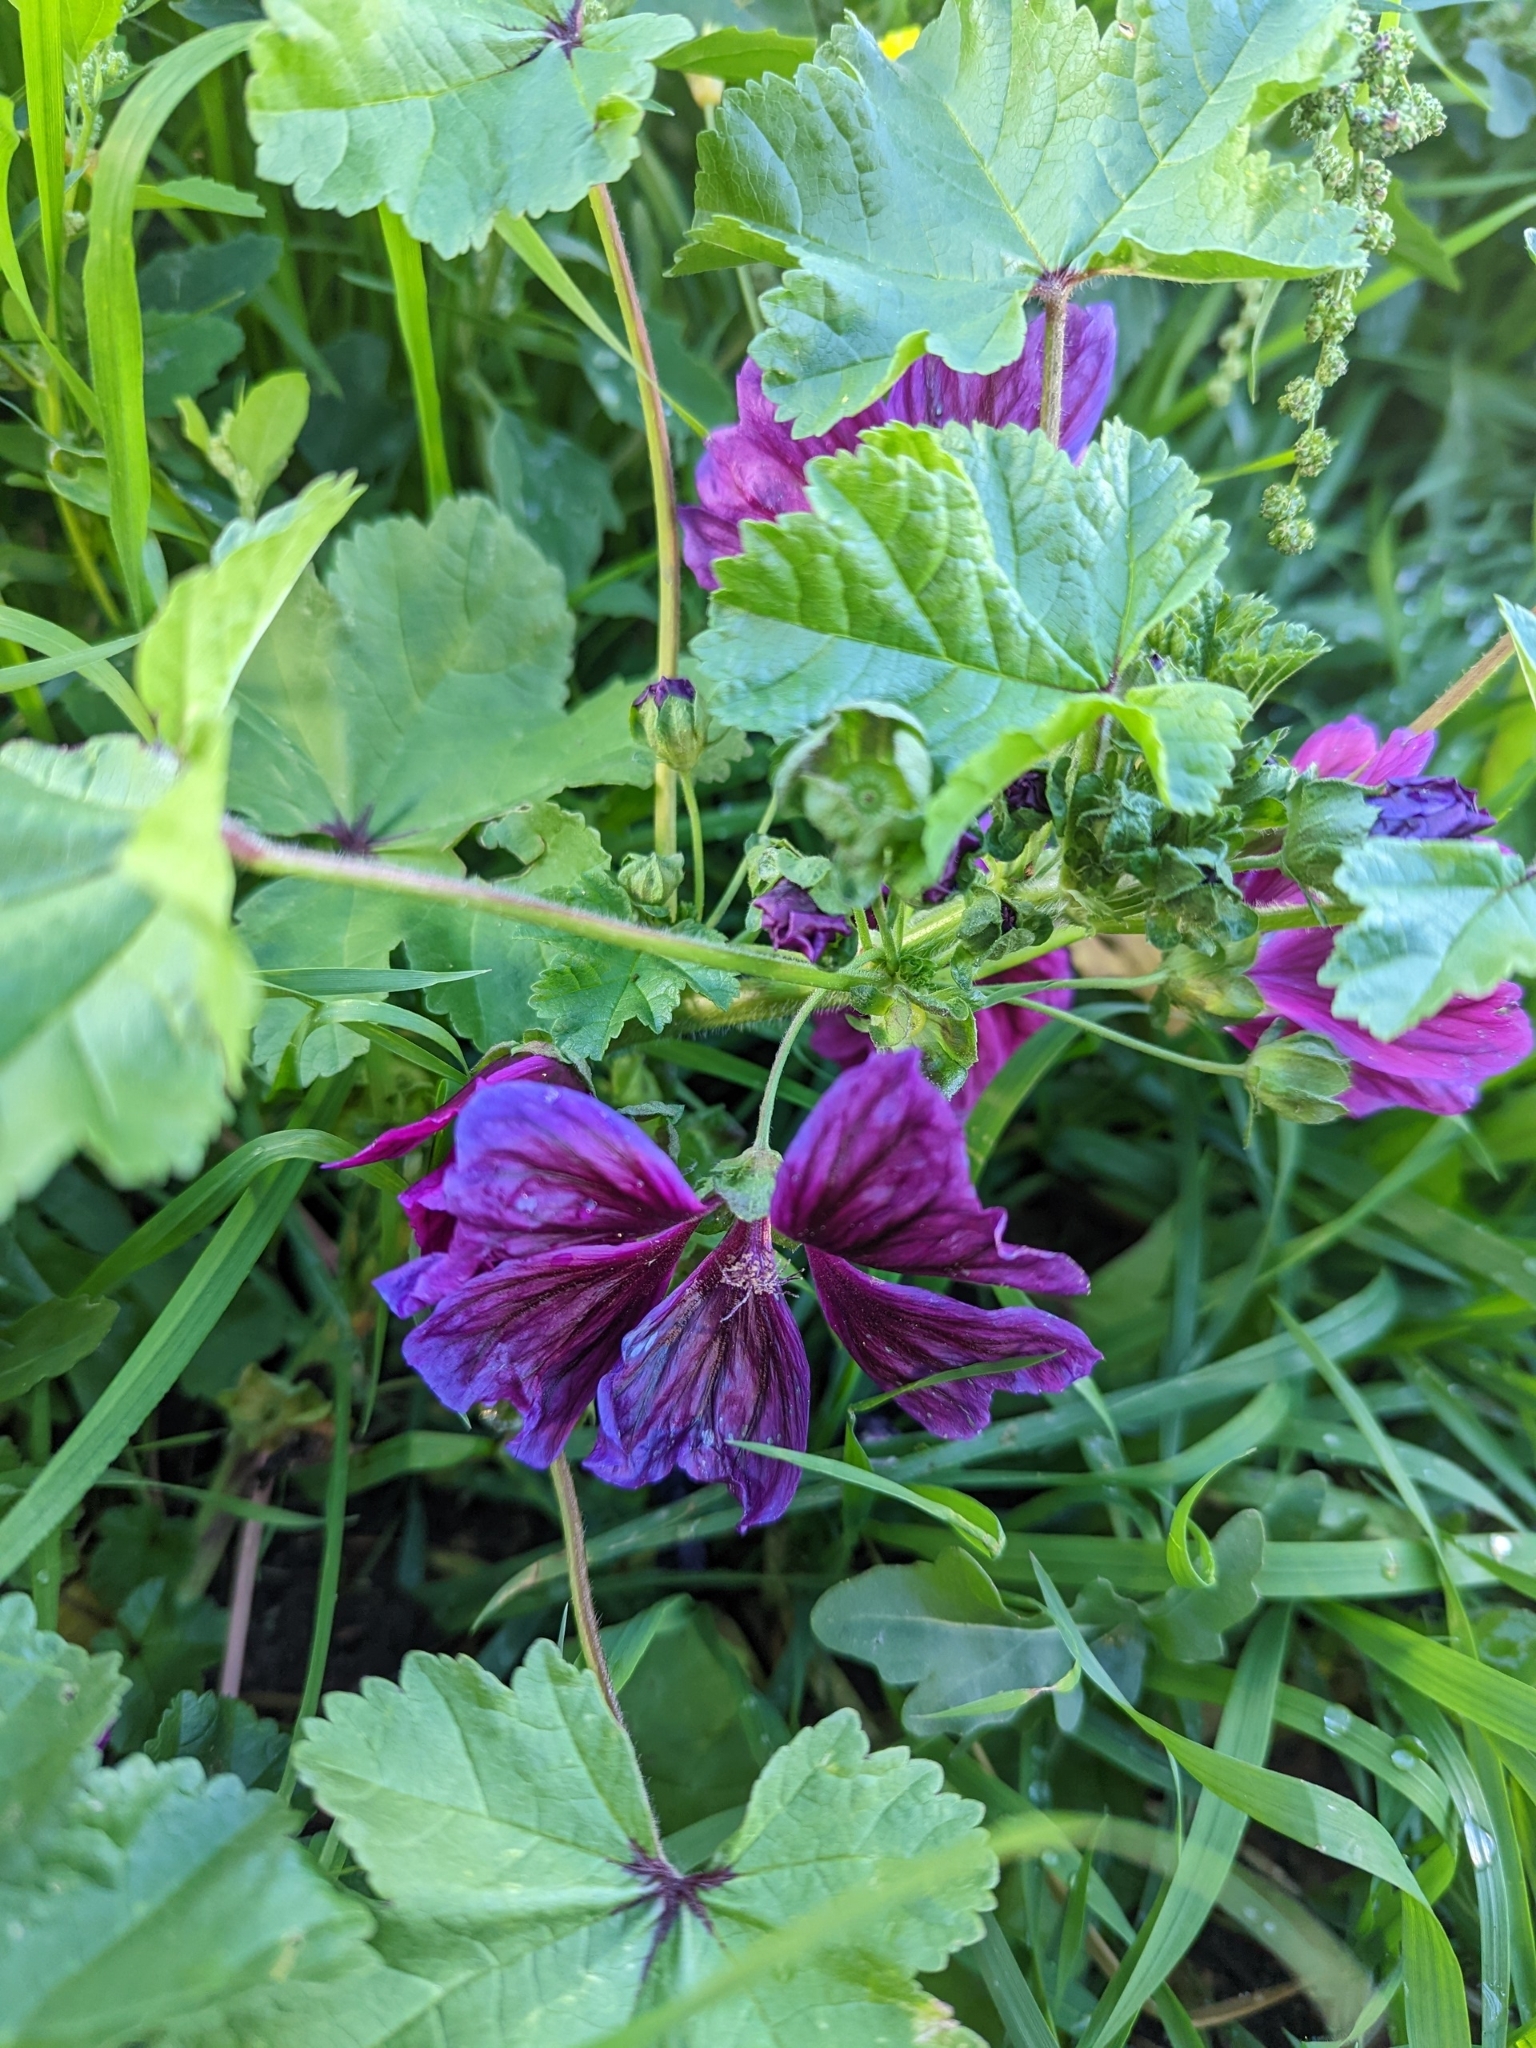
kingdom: Plantae
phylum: Tracheophyta
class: Magnoliopsida
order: Malvales
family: Malvaceae
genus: Malva
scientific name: Malva sylvestris
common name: Common mallow
